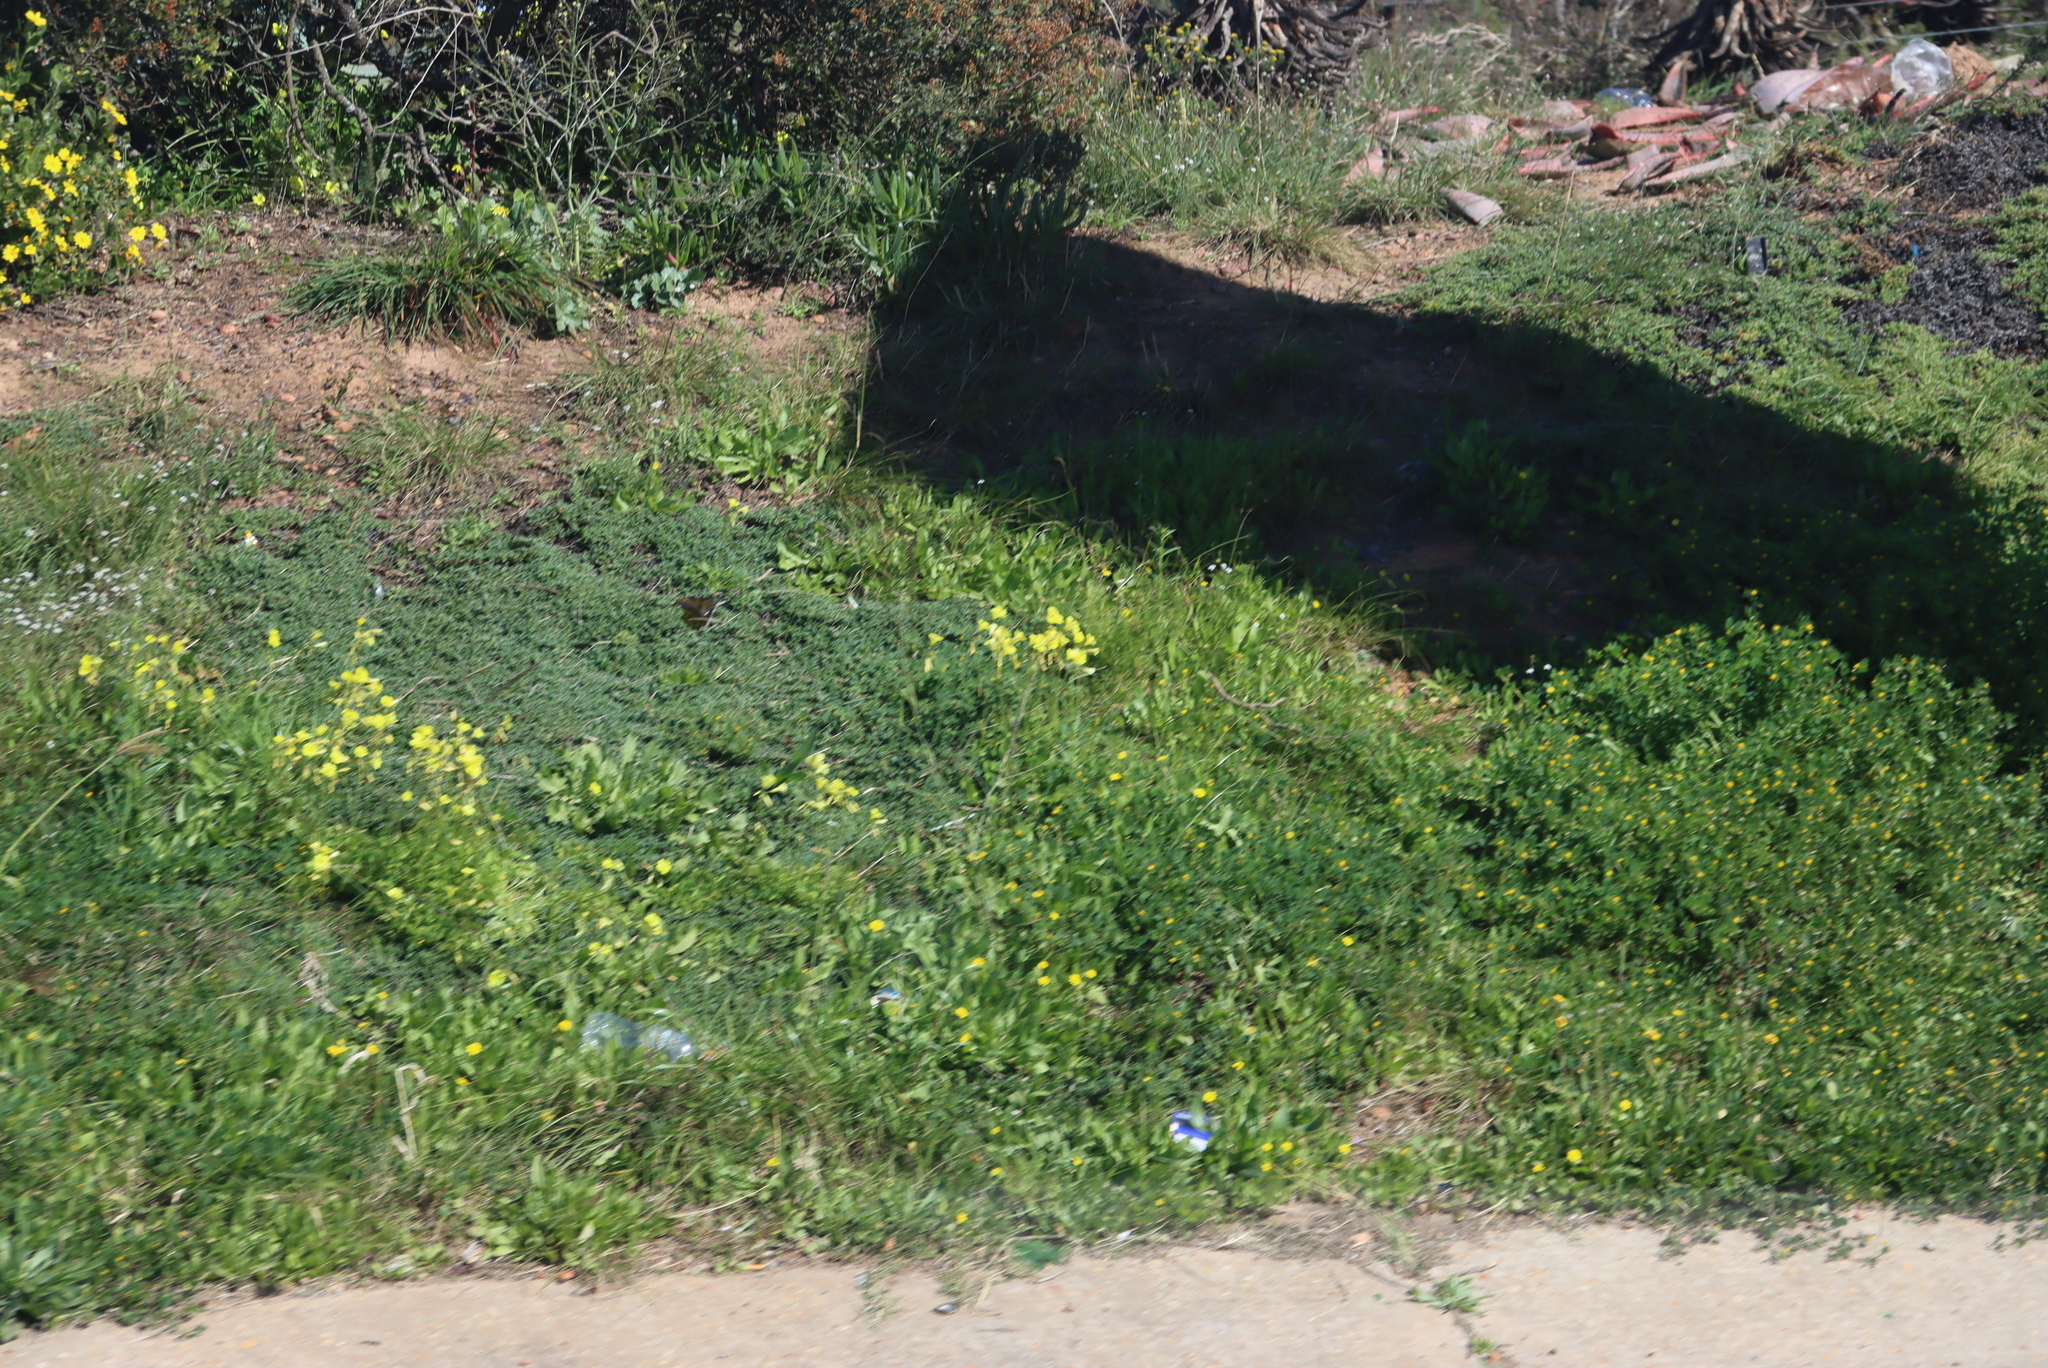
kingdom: Plantae
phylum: Tracheophyta
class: Magnoliopsida
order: Oxalidales
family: Oxalidaceae
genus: Oxalis
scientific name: Oxalis pes-caprae
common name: Bermuda-buttercup
